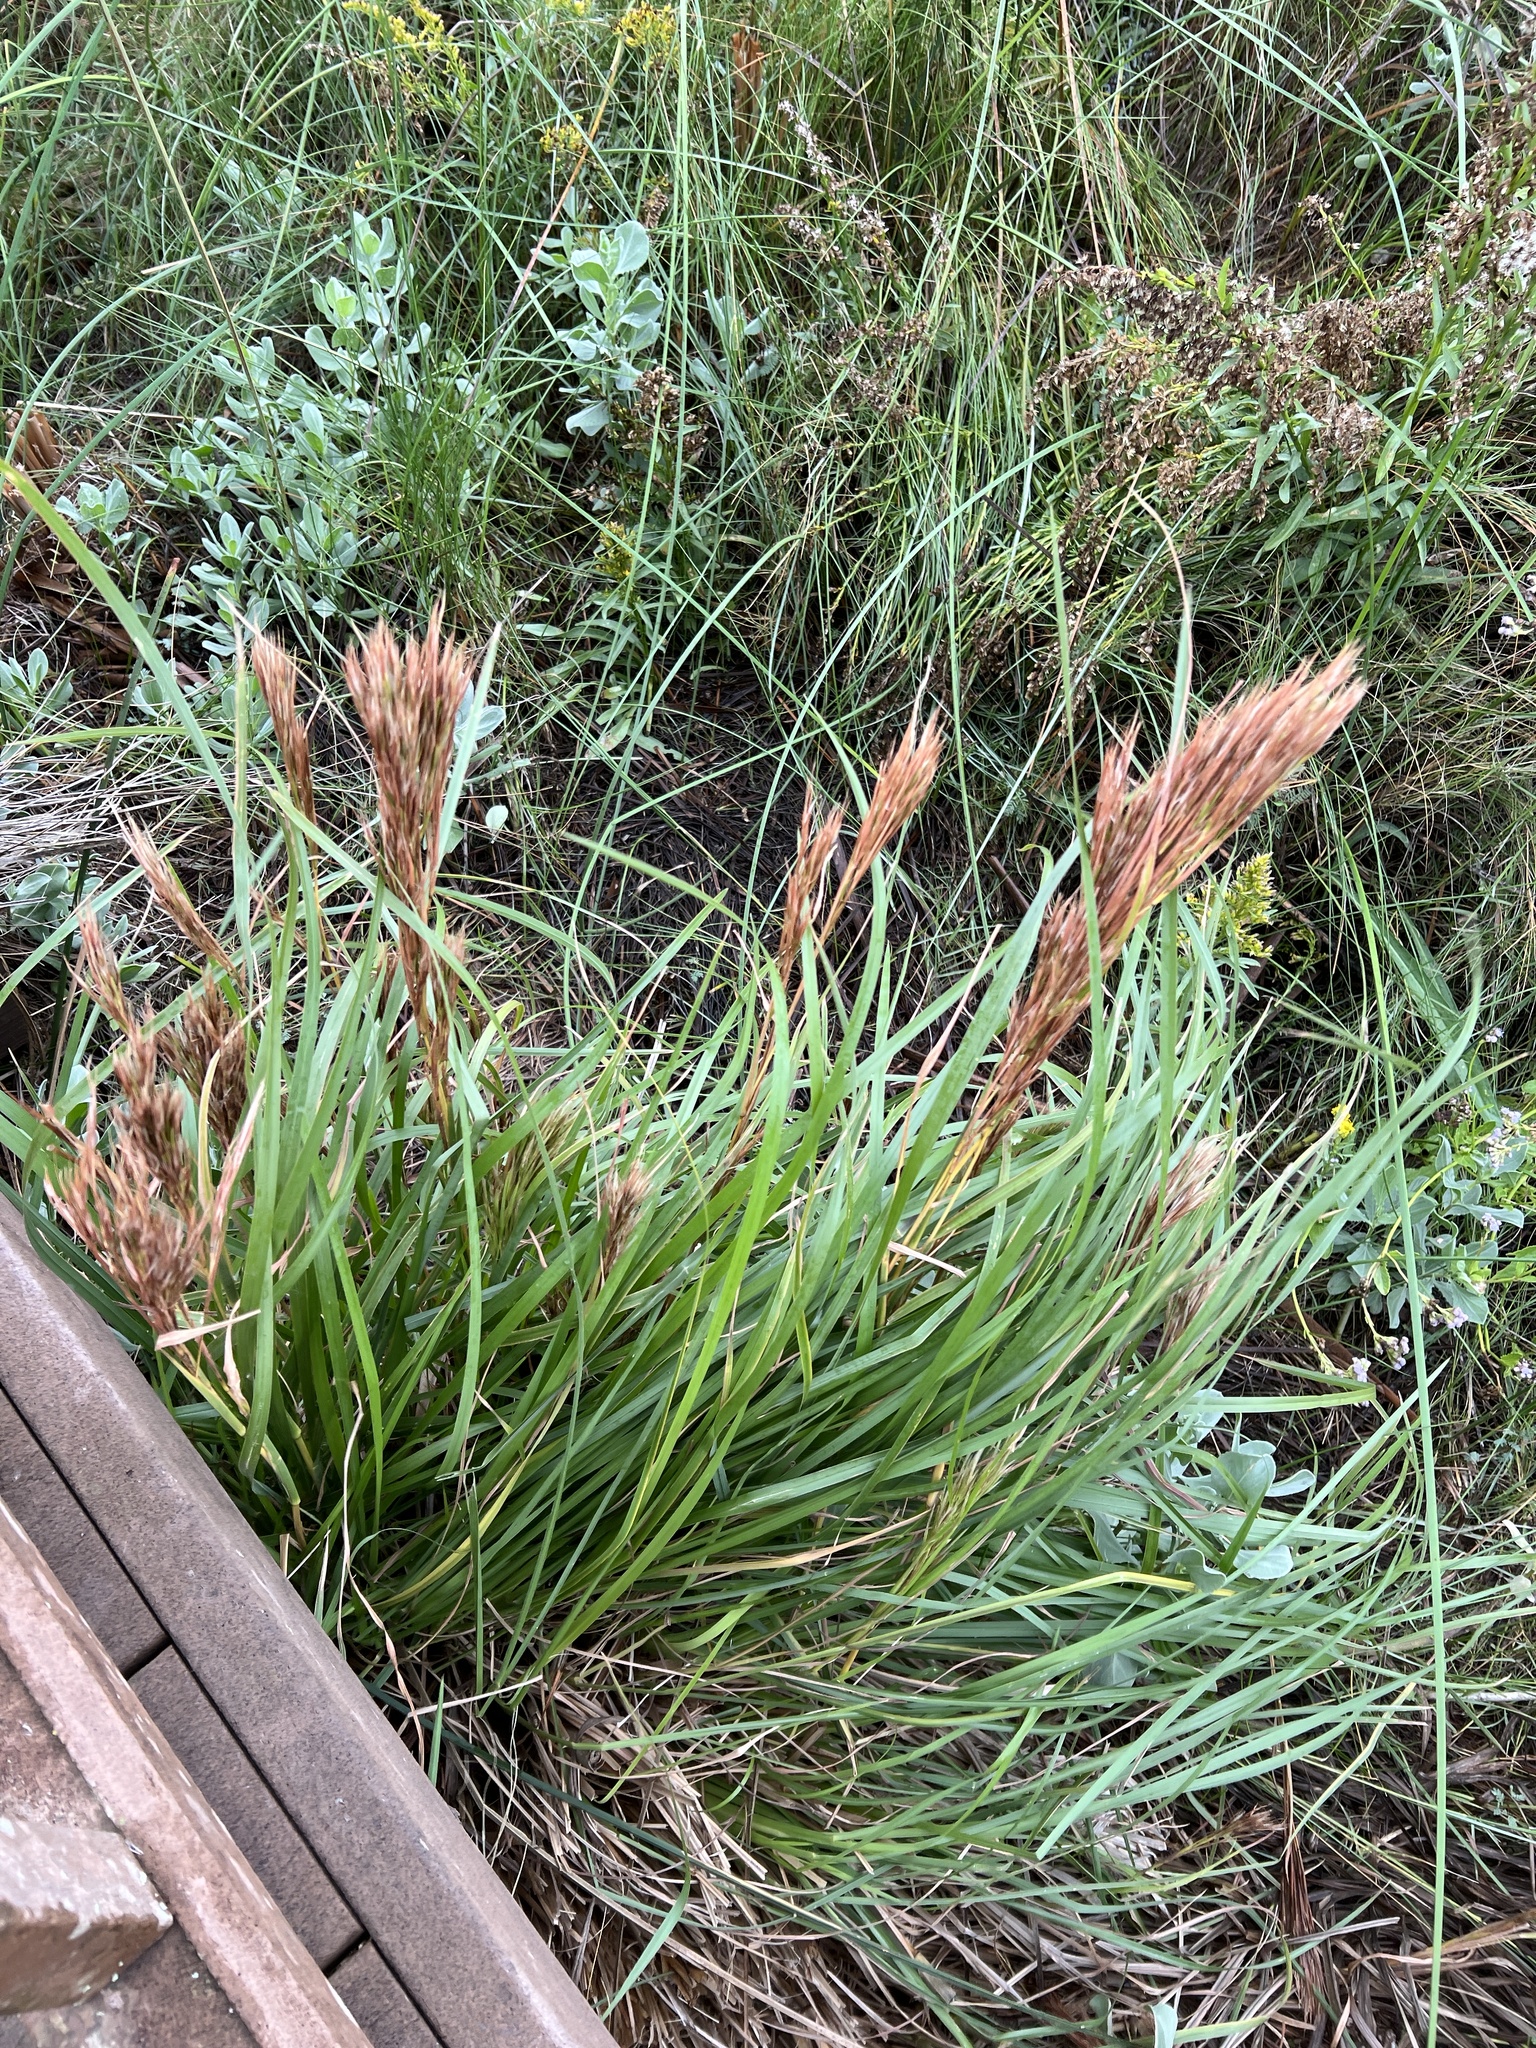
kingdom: Plantae
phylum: Tracheophyta
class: Liliopsida
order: Poales
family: Poaceae
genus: Andropogon
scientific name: Andropogon tenuispatheus
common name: Bushy bluestem
